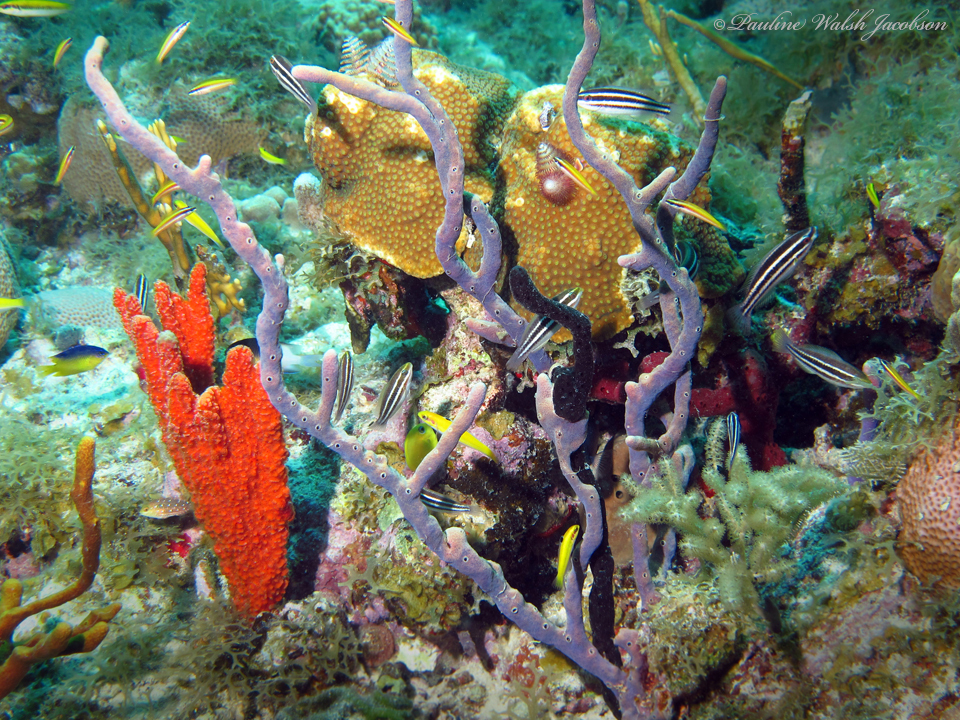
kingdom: Animalia
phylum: Chordata
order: Perciformes
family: Labridae
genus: Thalassoma
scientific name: Thalassoma bifasciatum
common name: Bluehead wrasse
